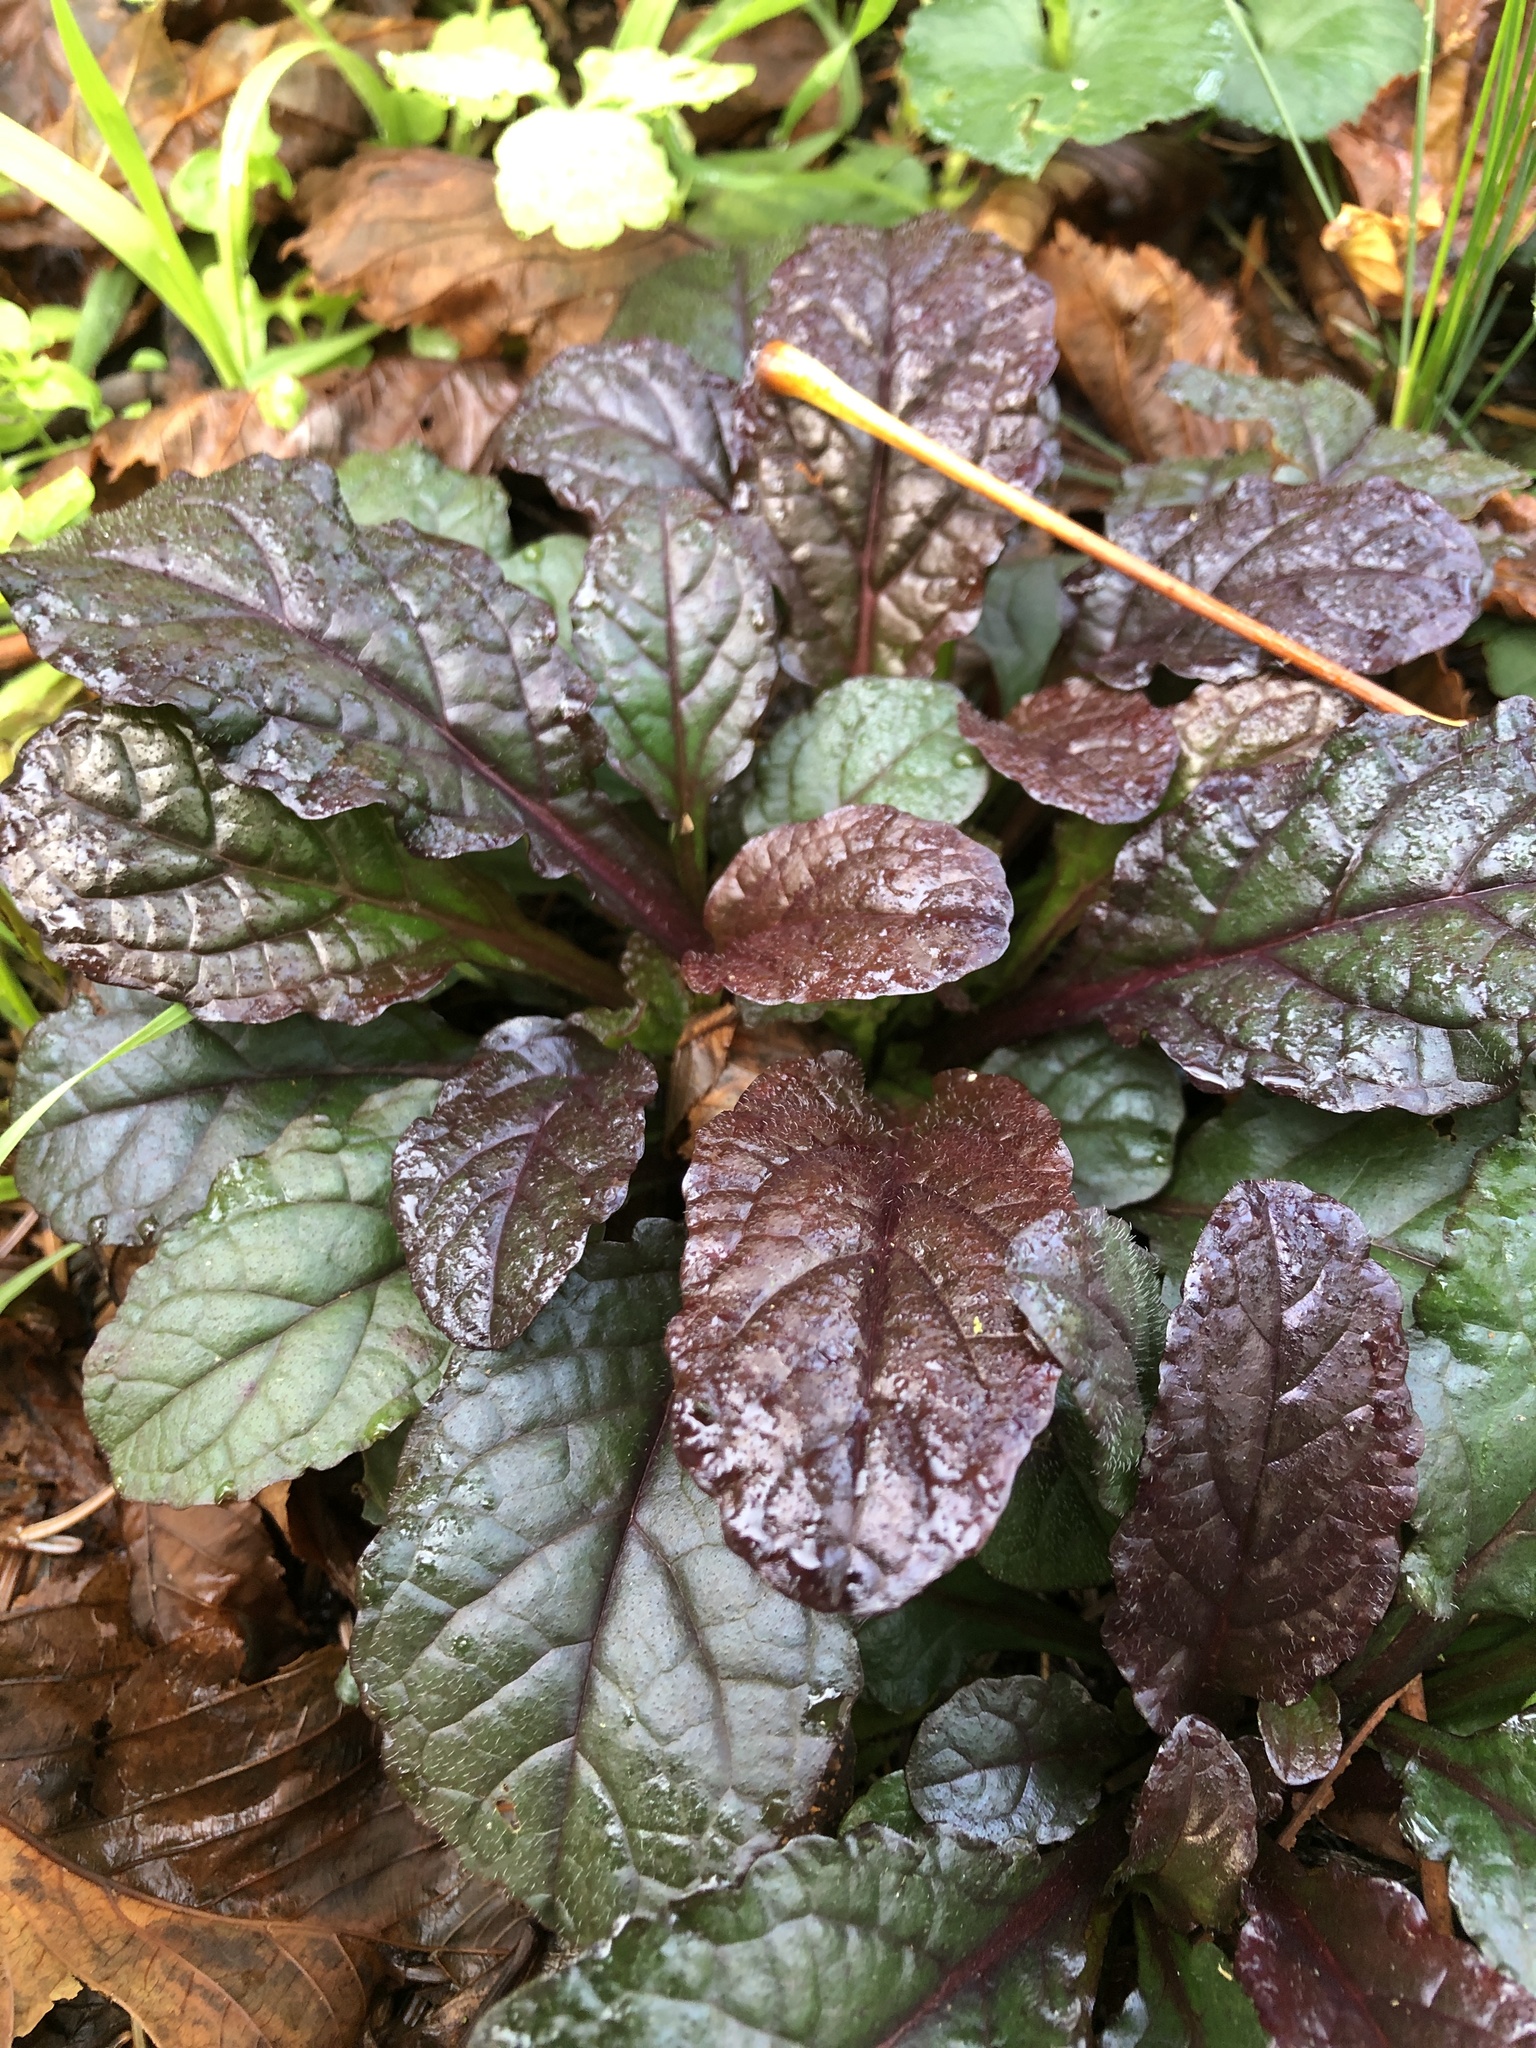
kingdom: Plantae
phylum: Tracheophyta
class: Magnoliopsida
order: Lamiales
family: Lamiaceae
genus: Ajuga
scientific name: Ajuga reptans
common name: Bugle
